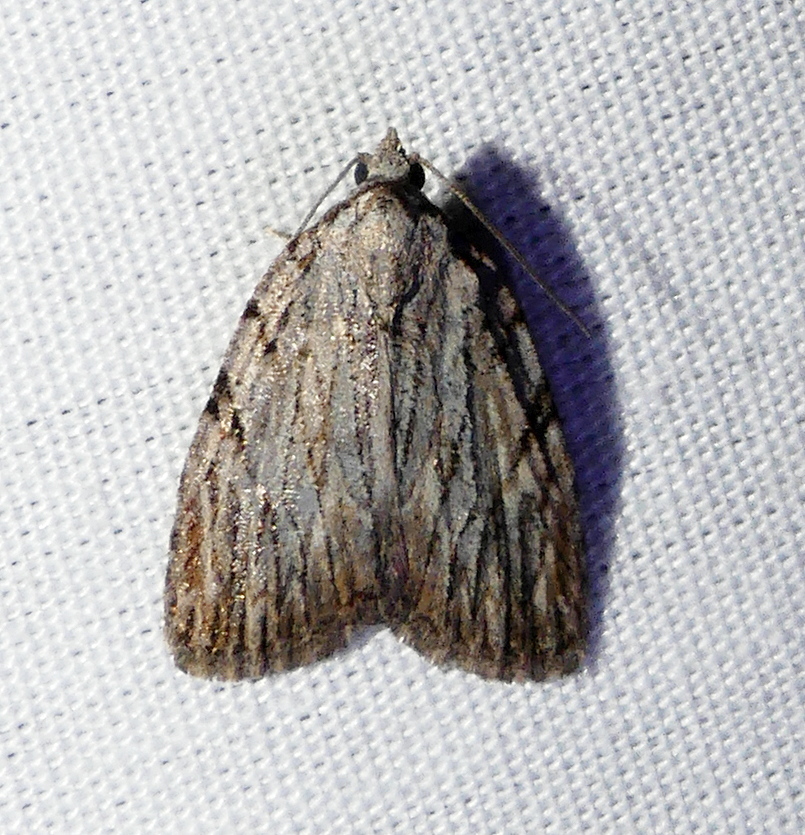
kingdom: Animalia
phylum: Arthropoda
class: Insecta
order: Lepidoptera
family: Noctuidae
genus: Balsa
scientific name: Balsa tristrigella
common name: Three-lined balsa moth
